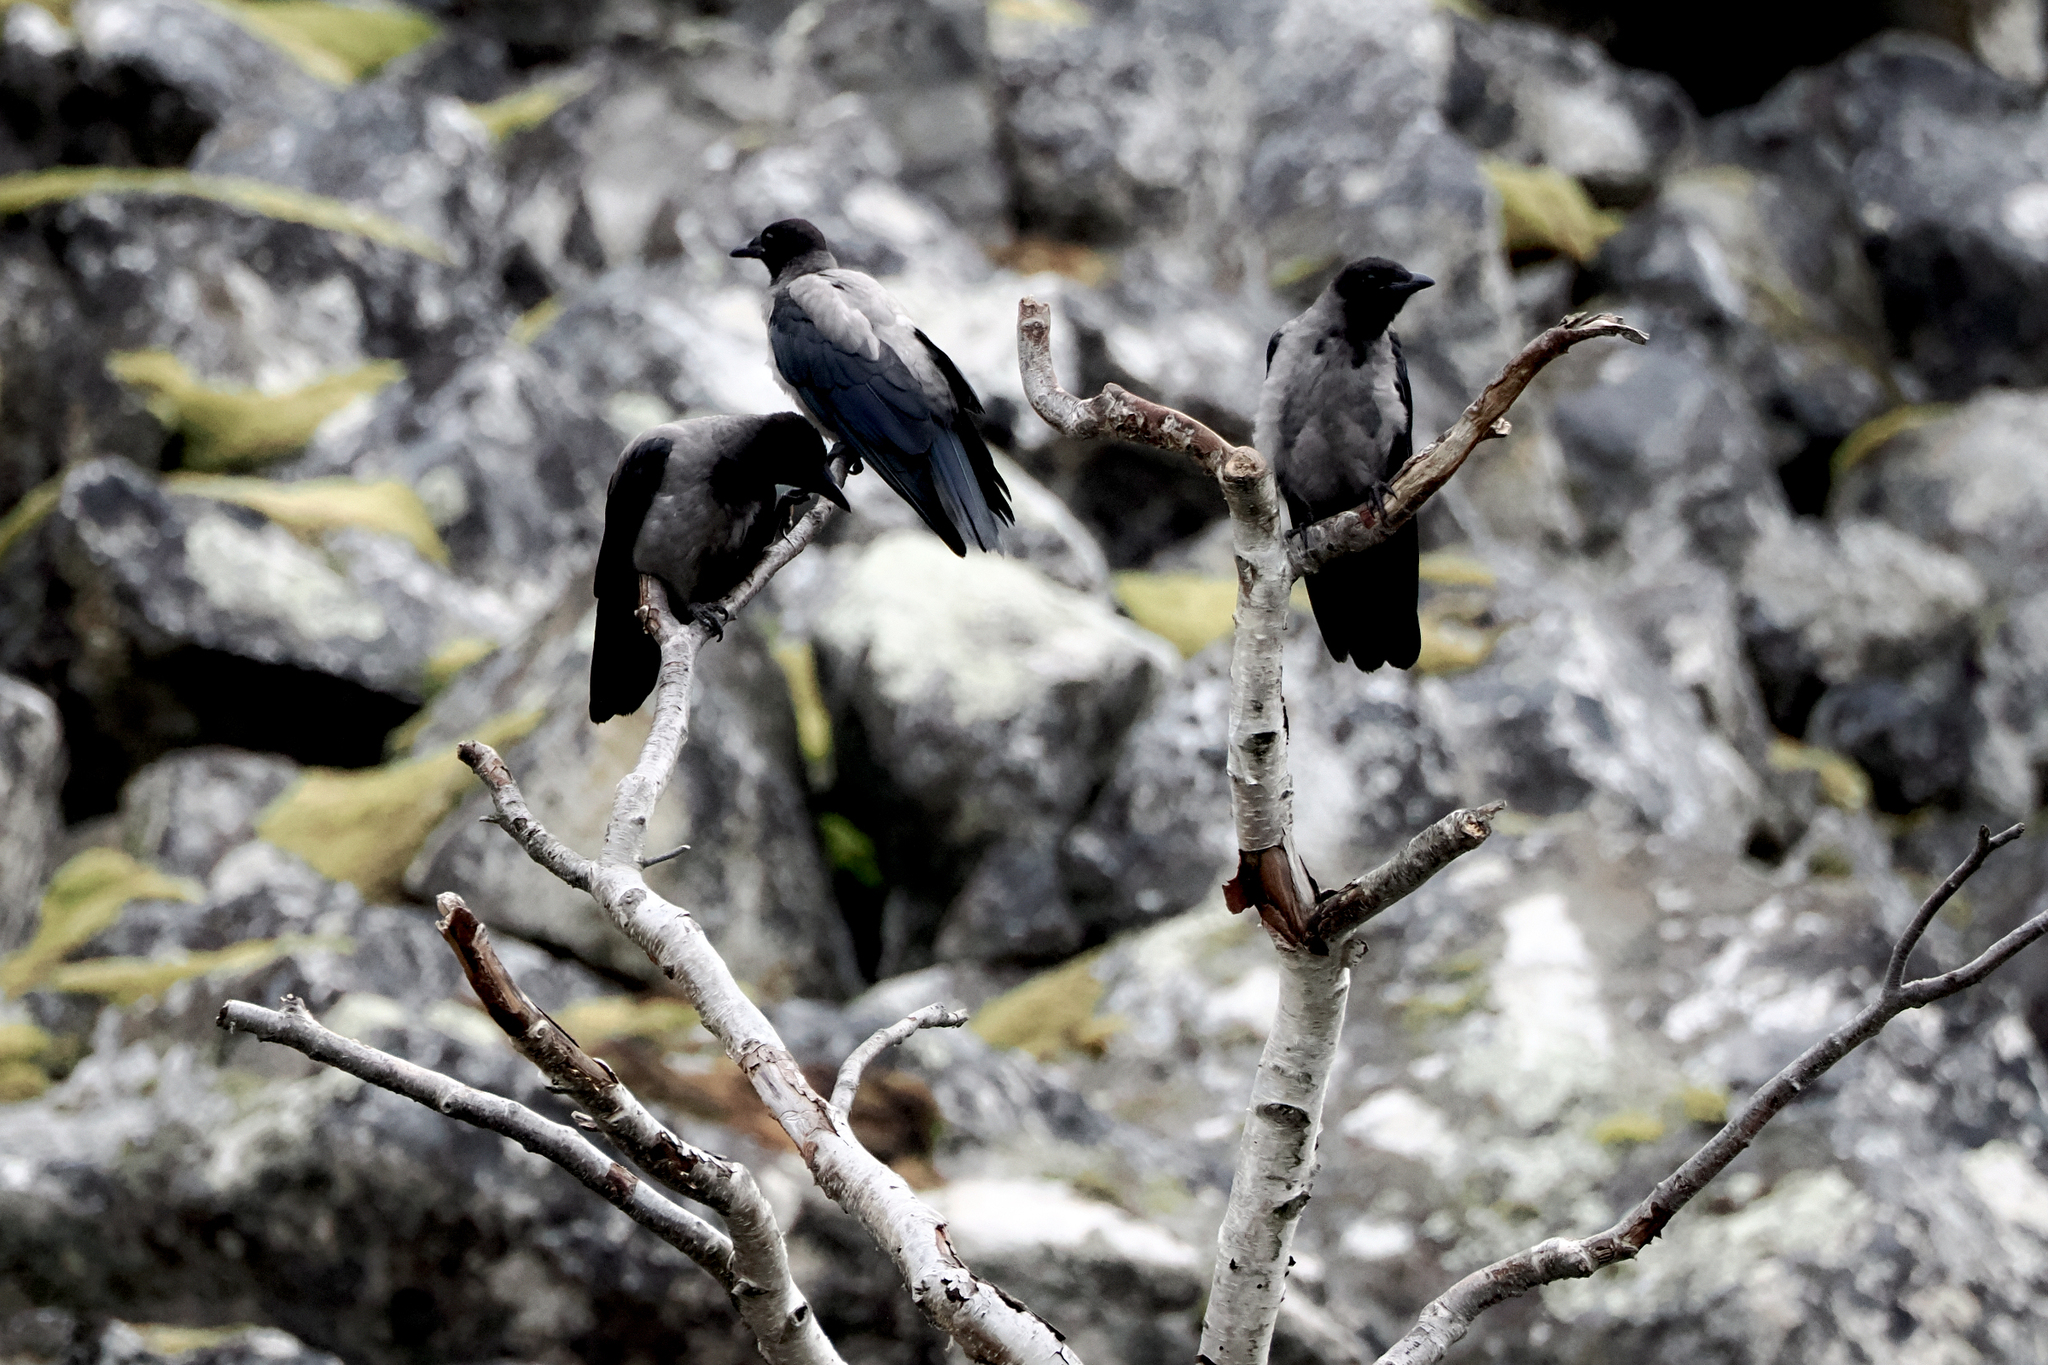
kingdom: Animalia
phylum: Chordata
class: Aves
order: Passeriformes
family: Corvidae
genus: Corvus
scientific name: Corvus cornix
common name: Hooded crow
